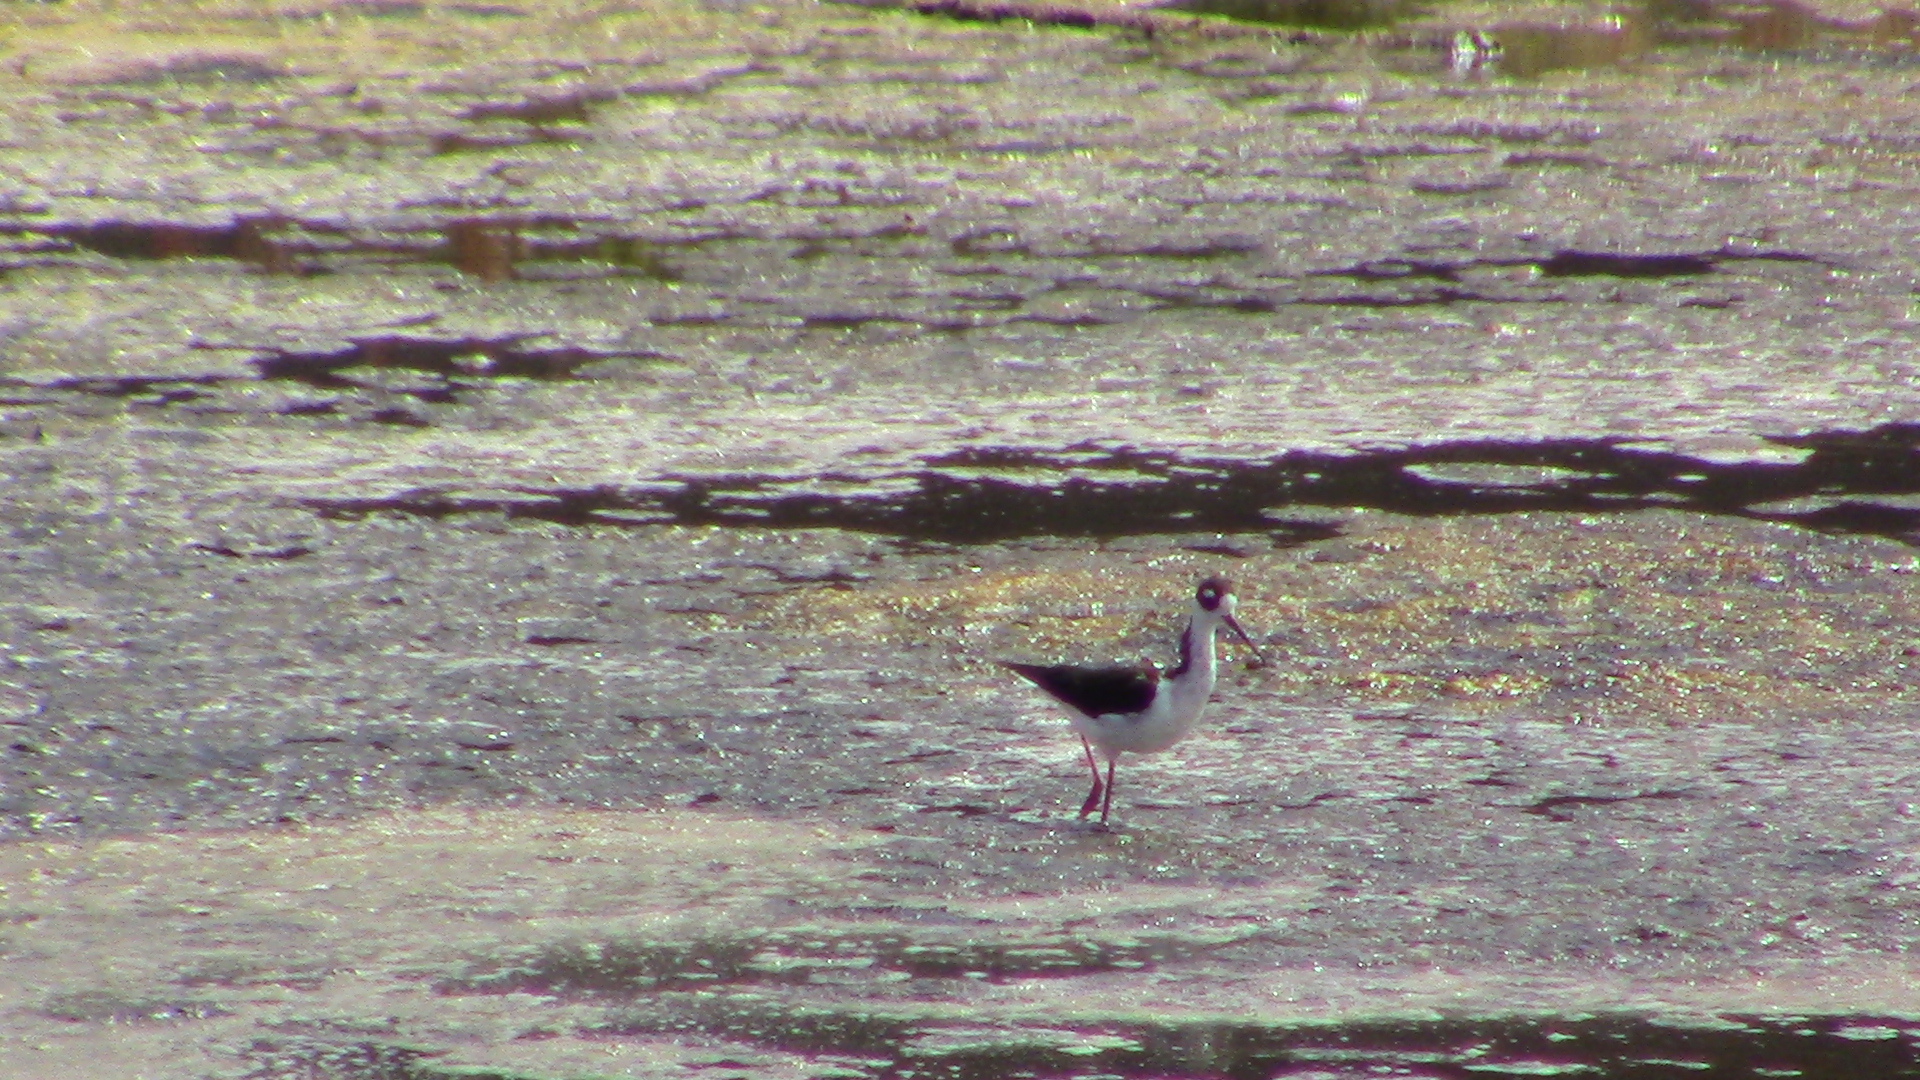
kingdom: Animalia
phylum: Chordata
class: Aves
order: Charadriiformes
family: Recurvirostridae
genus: Himantopus
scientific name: Himantopus mexicanus
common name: Black-necked stilt
